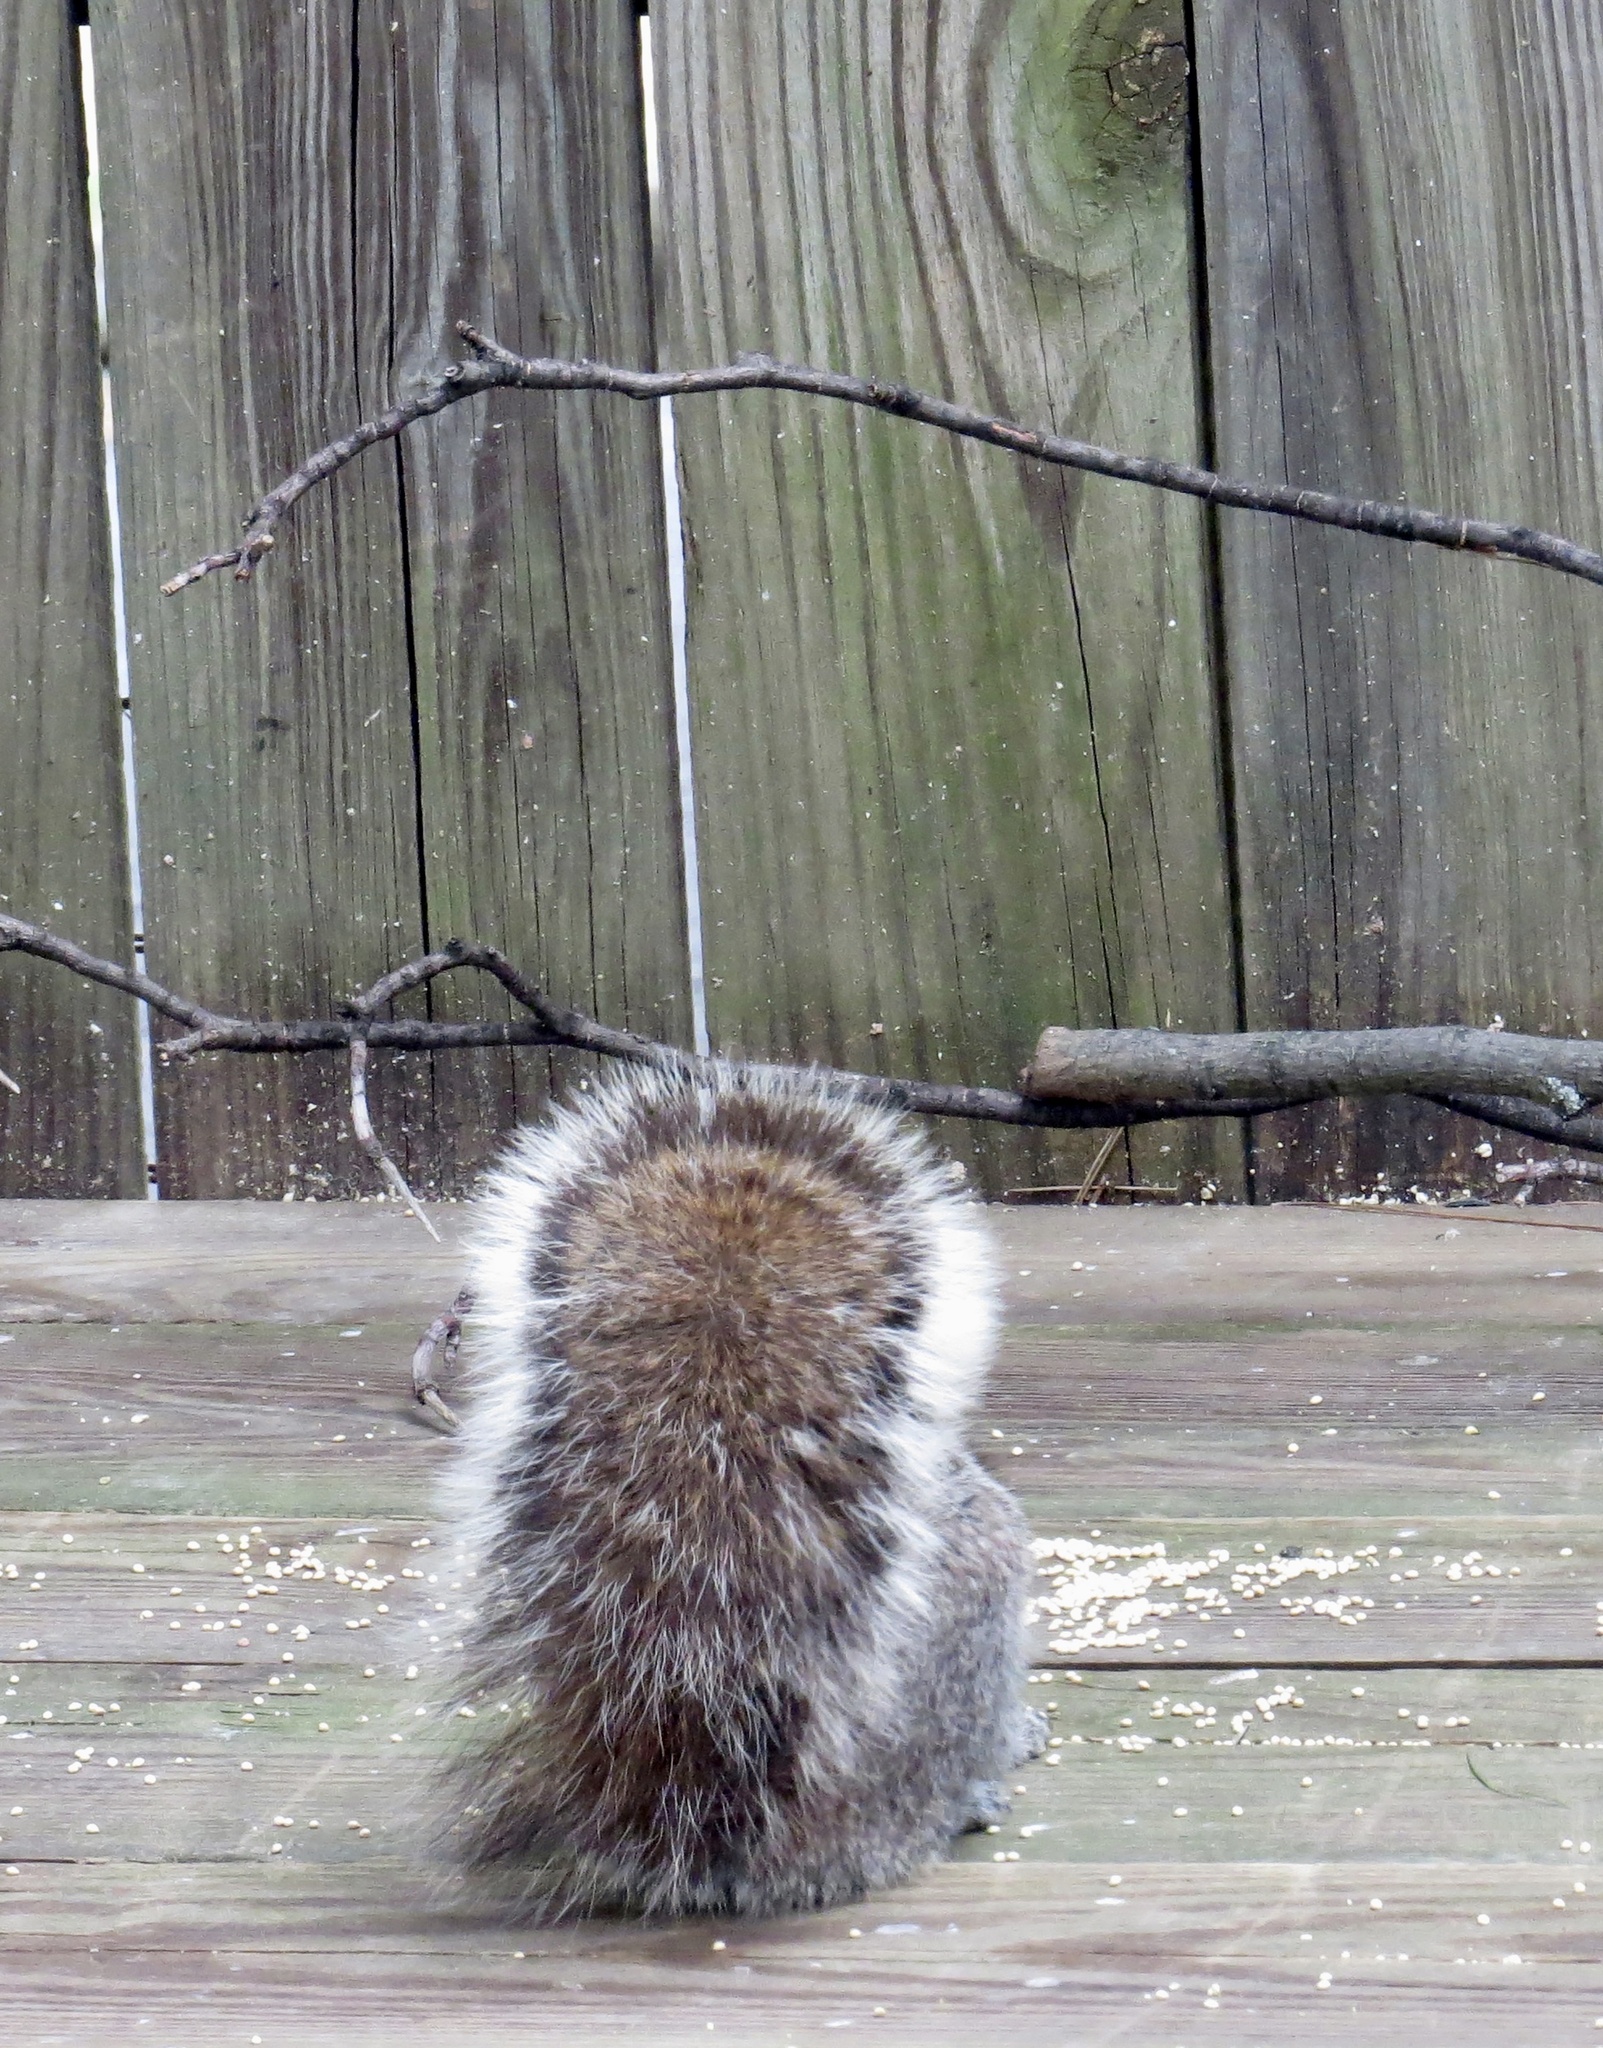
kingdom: Animalia
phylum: Chordata
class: Mammalia
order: Rodentia
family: Sciuridae
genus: Sciurus
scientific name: Sciurus carolinensis
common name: Eastern gray squirrel
